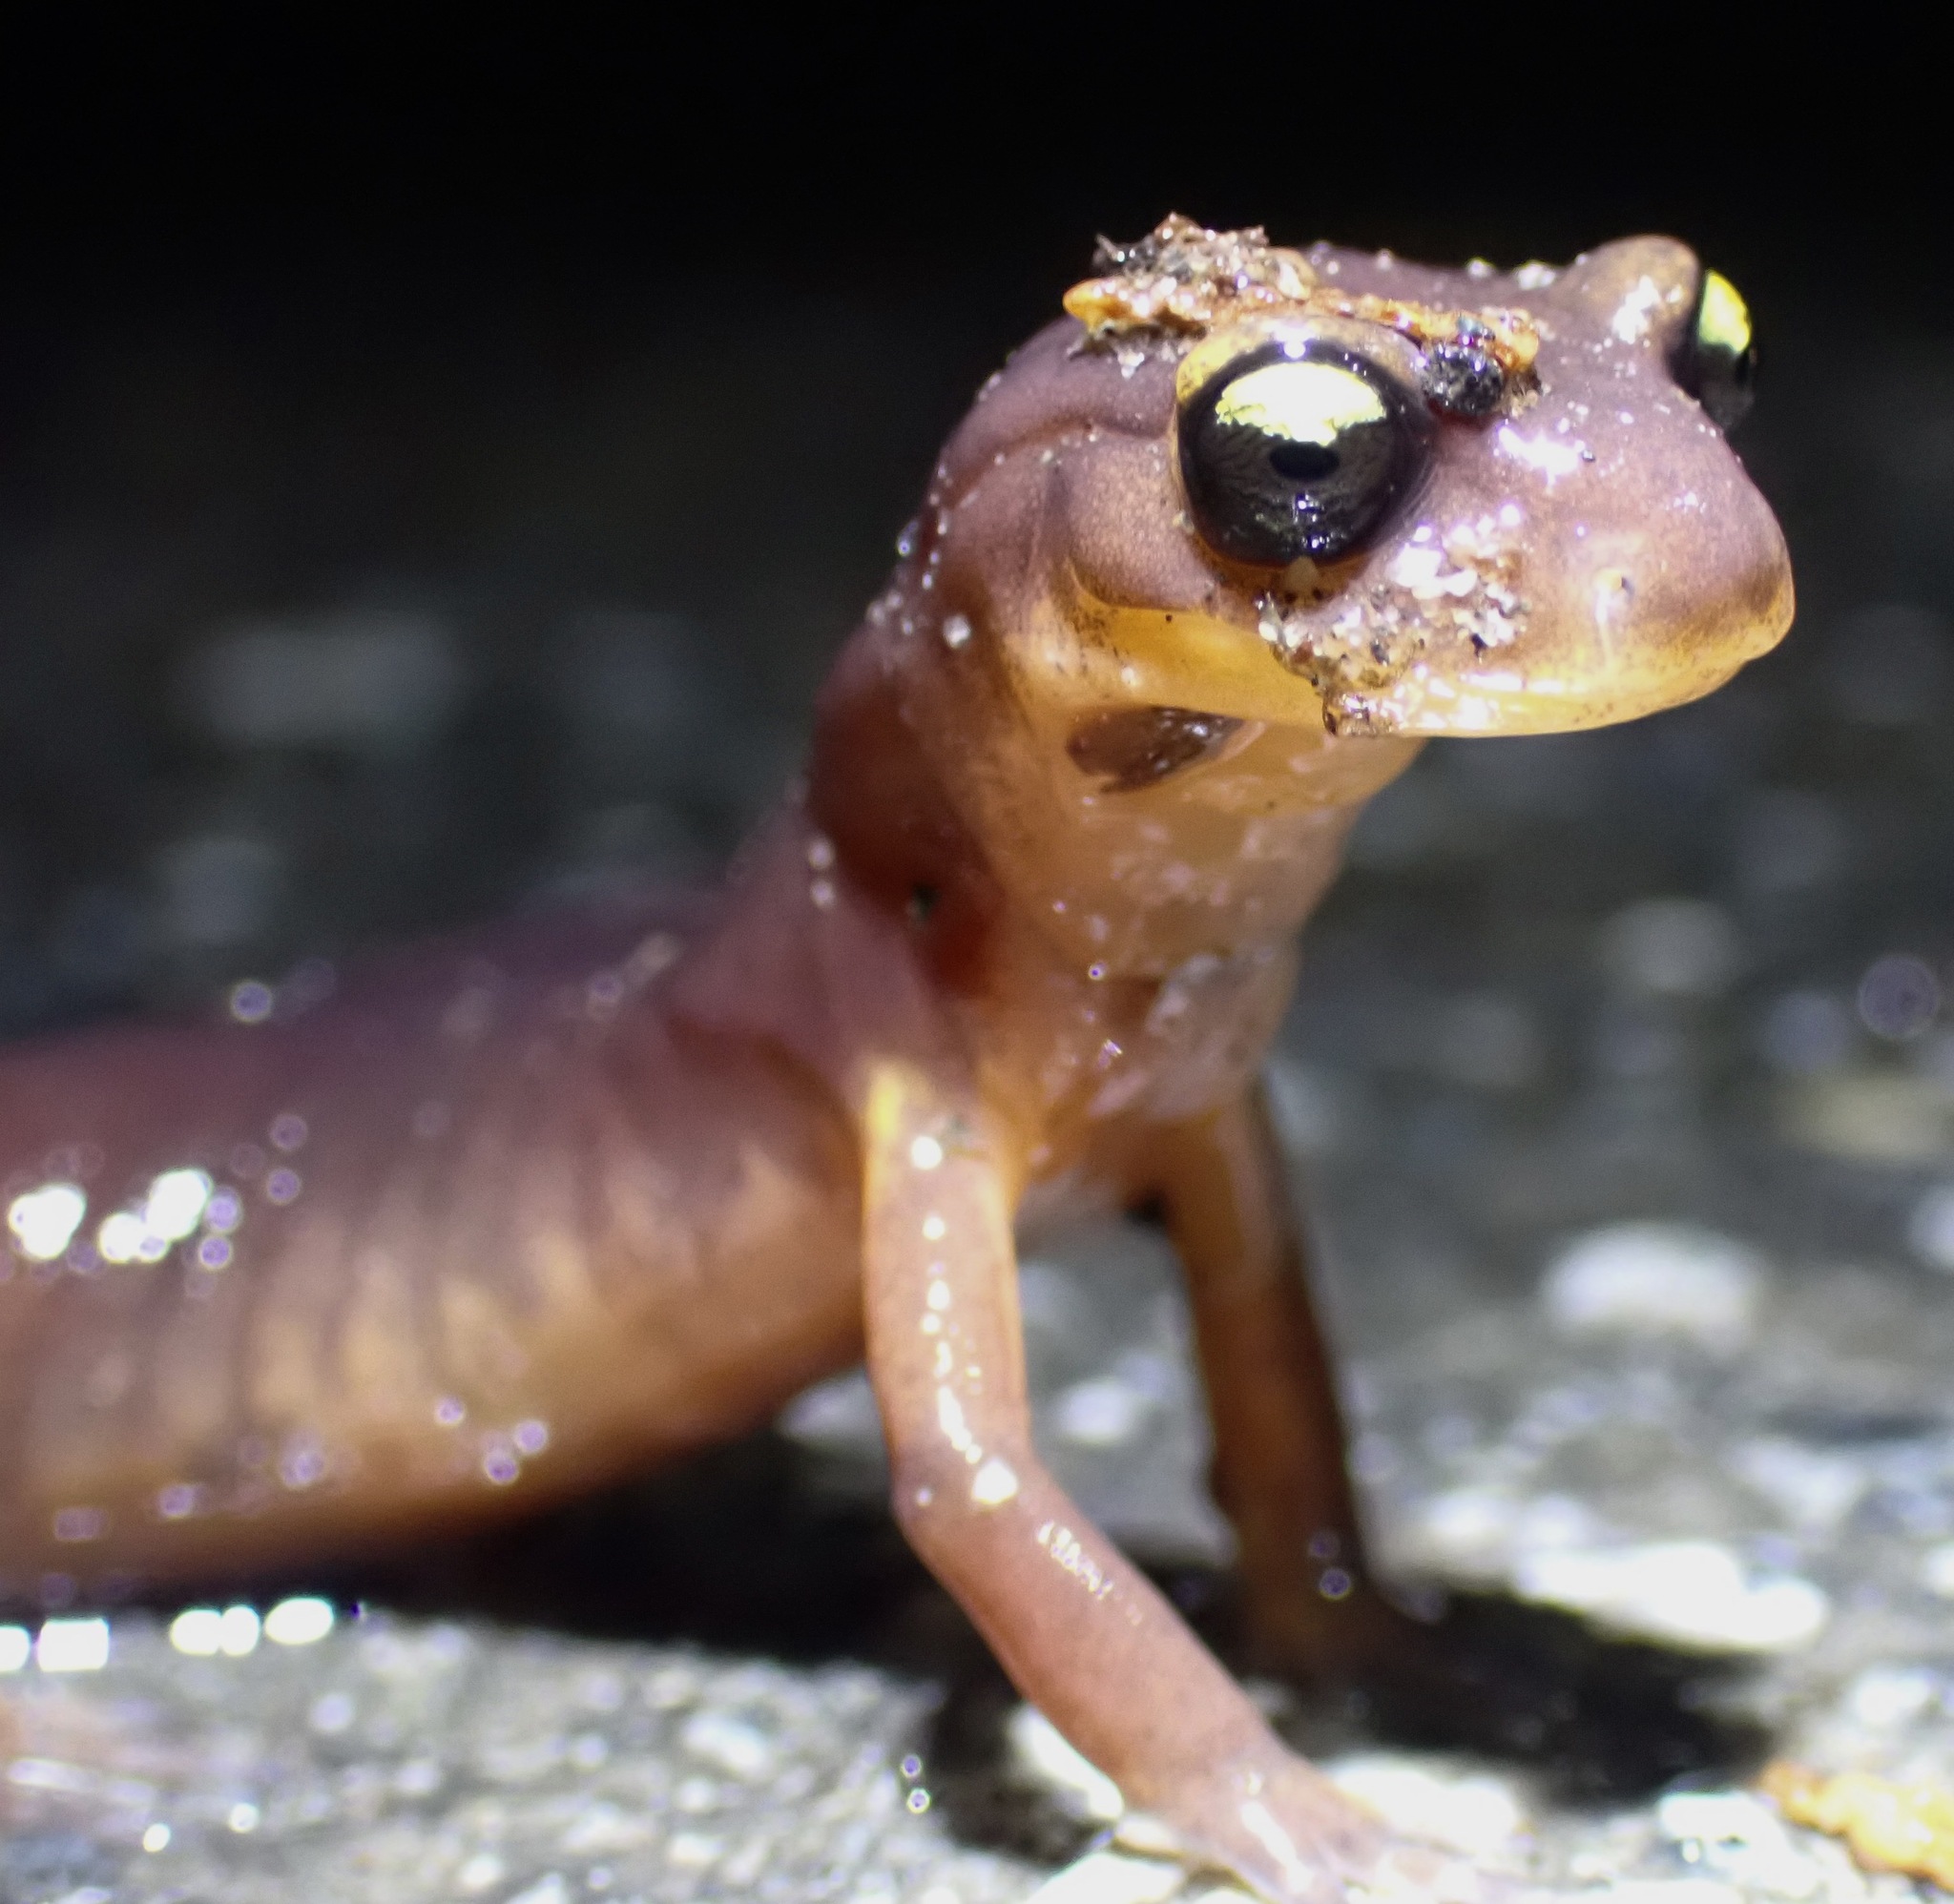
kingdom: Animalia
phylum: Chordata
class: Amphibia
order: Caudata
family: Plethodontidae
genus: Ensatina
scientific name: Ensatina eschscholtzii
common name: Ensatina
